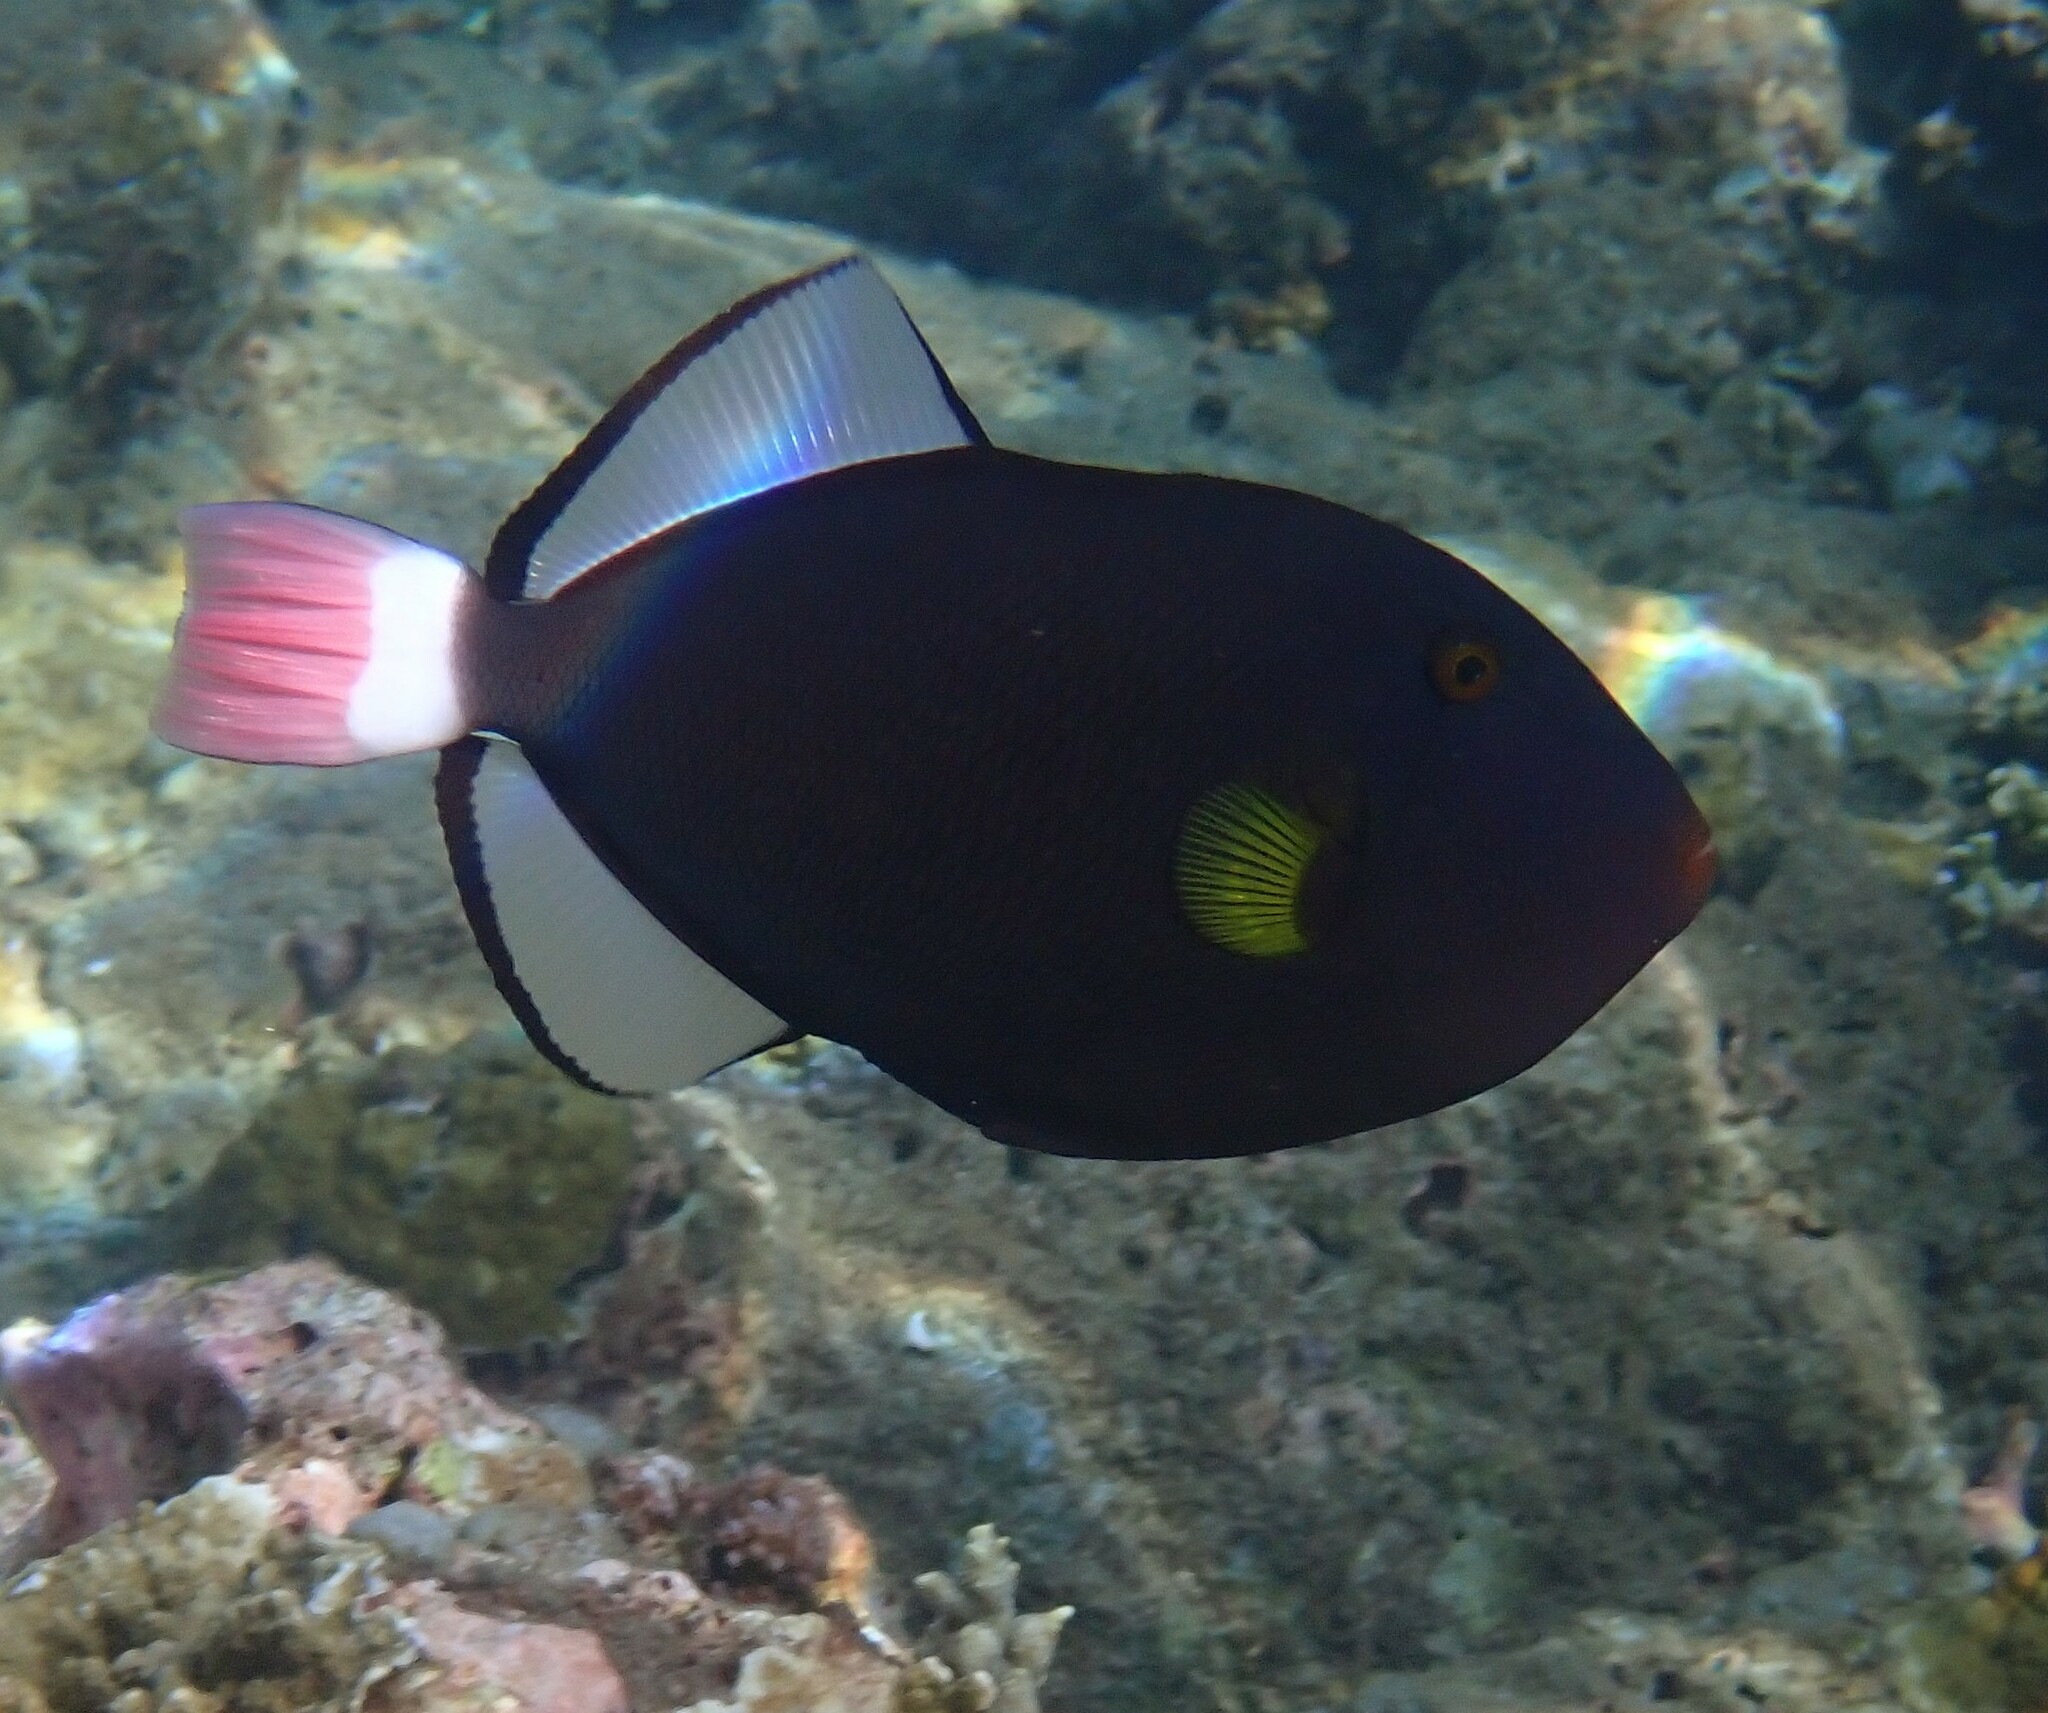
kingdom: Animalia
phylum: Chordata
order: Tetraodontiformes
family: Balistidae
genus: Melichthys
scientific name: Melichthys vidua
